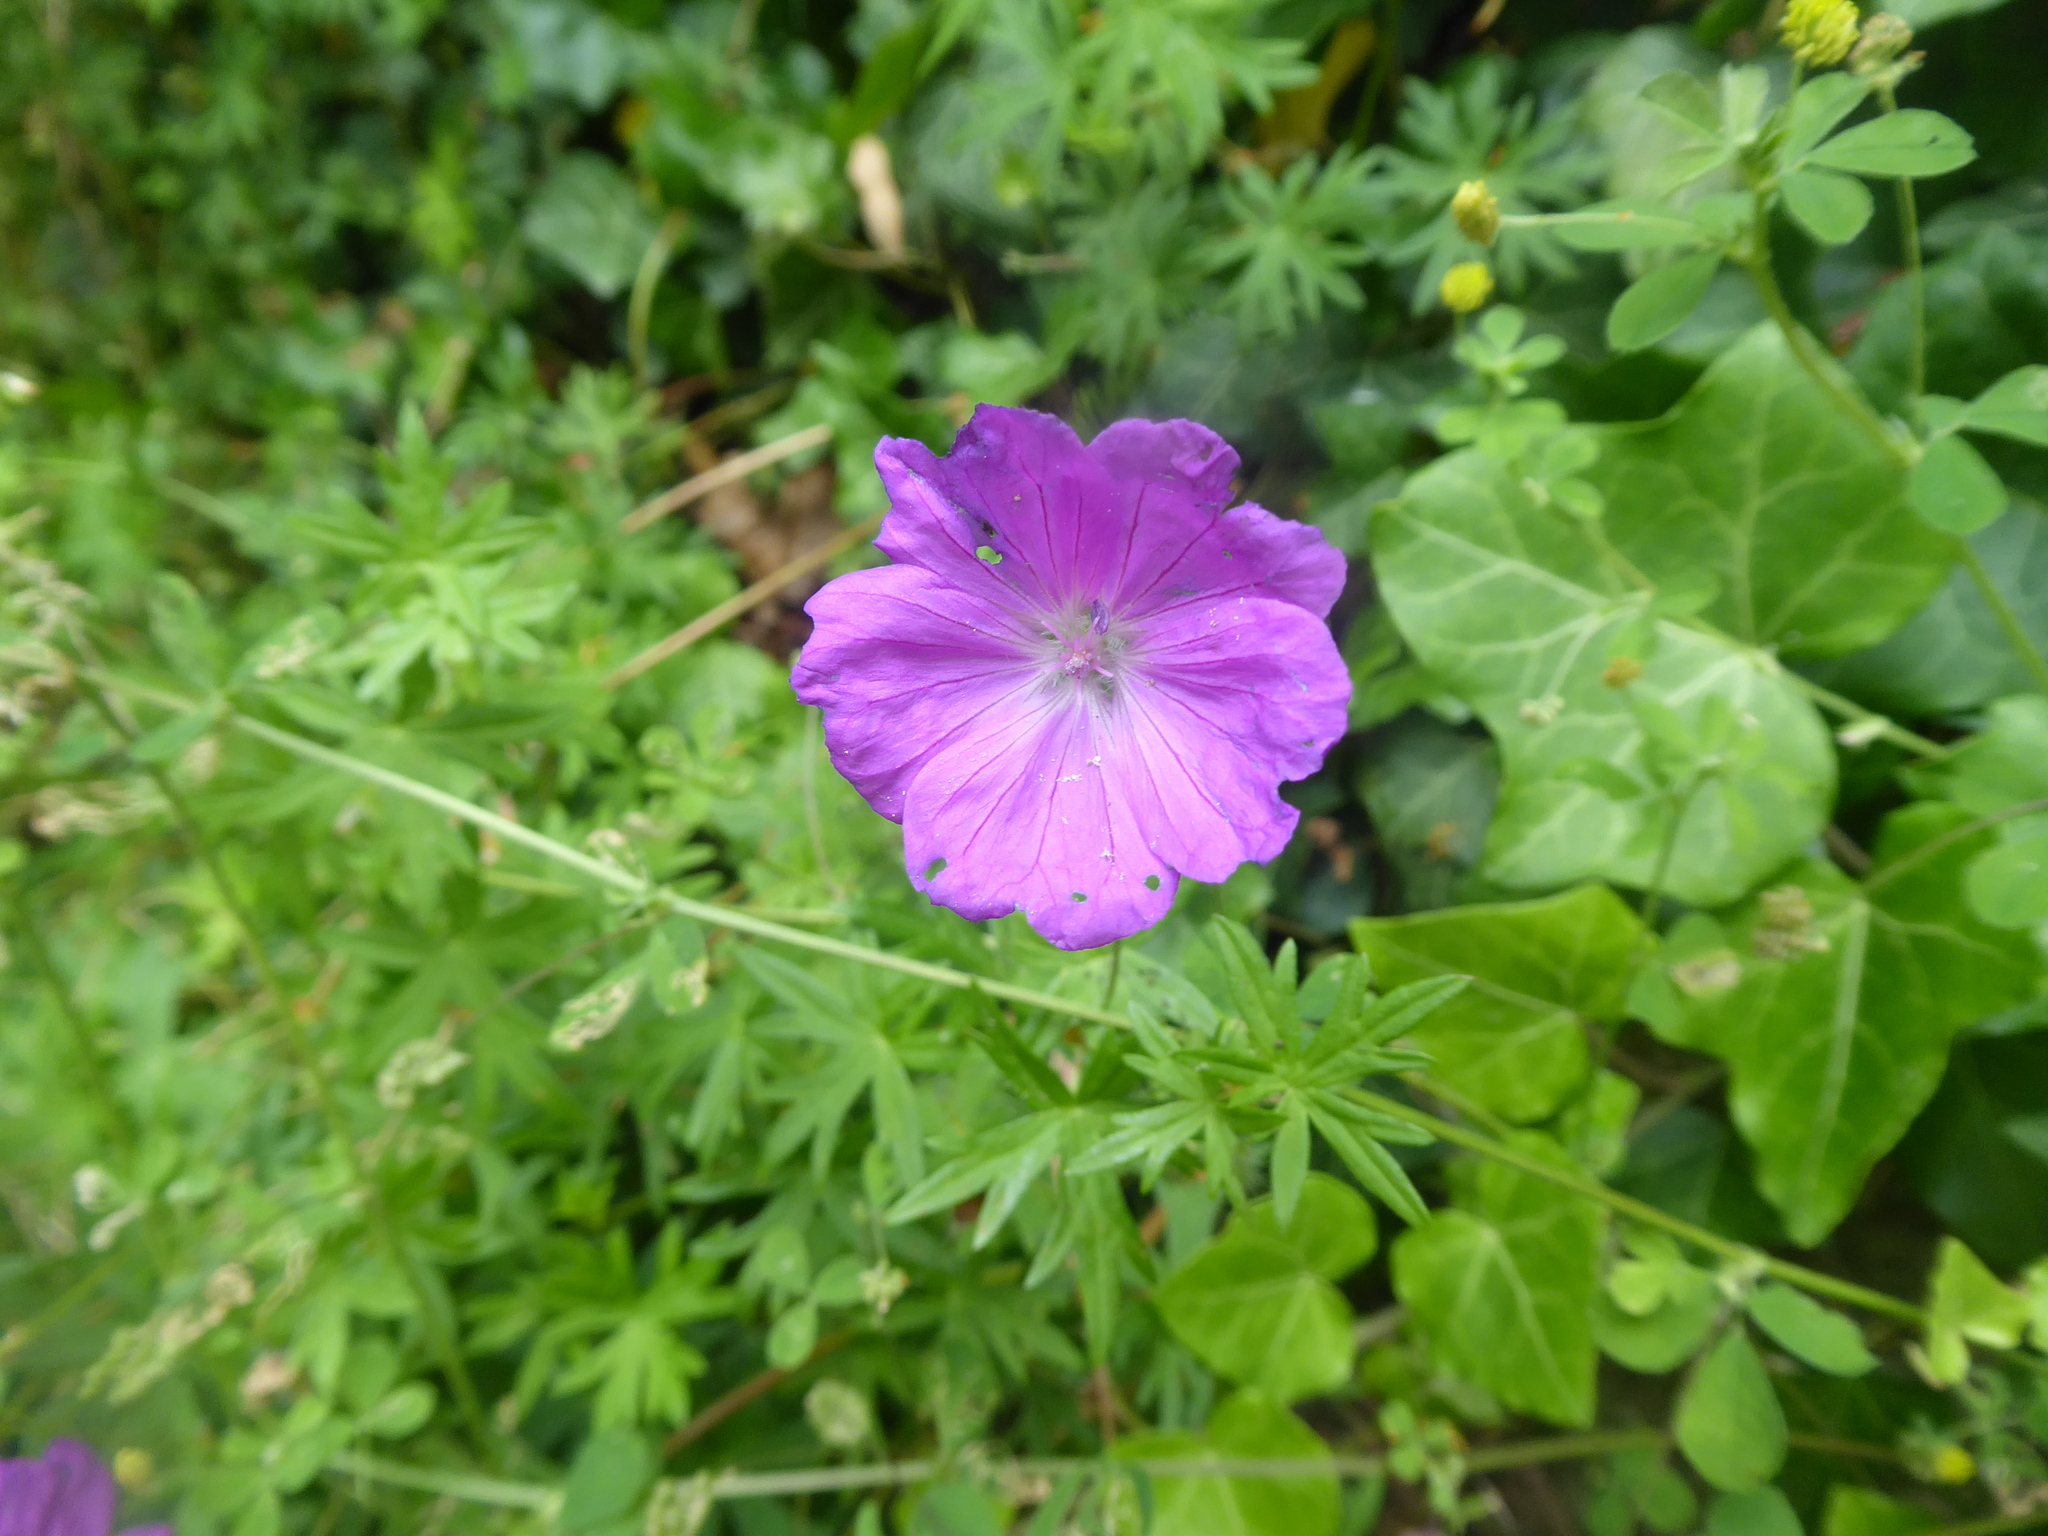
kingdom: Plantae
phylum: Tracheophyta
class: Magnoliopsida
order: Geraniales
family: Geraniaceae
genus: Geranium
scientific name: Geranium sanguineum
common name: Bloody crane's-bill
